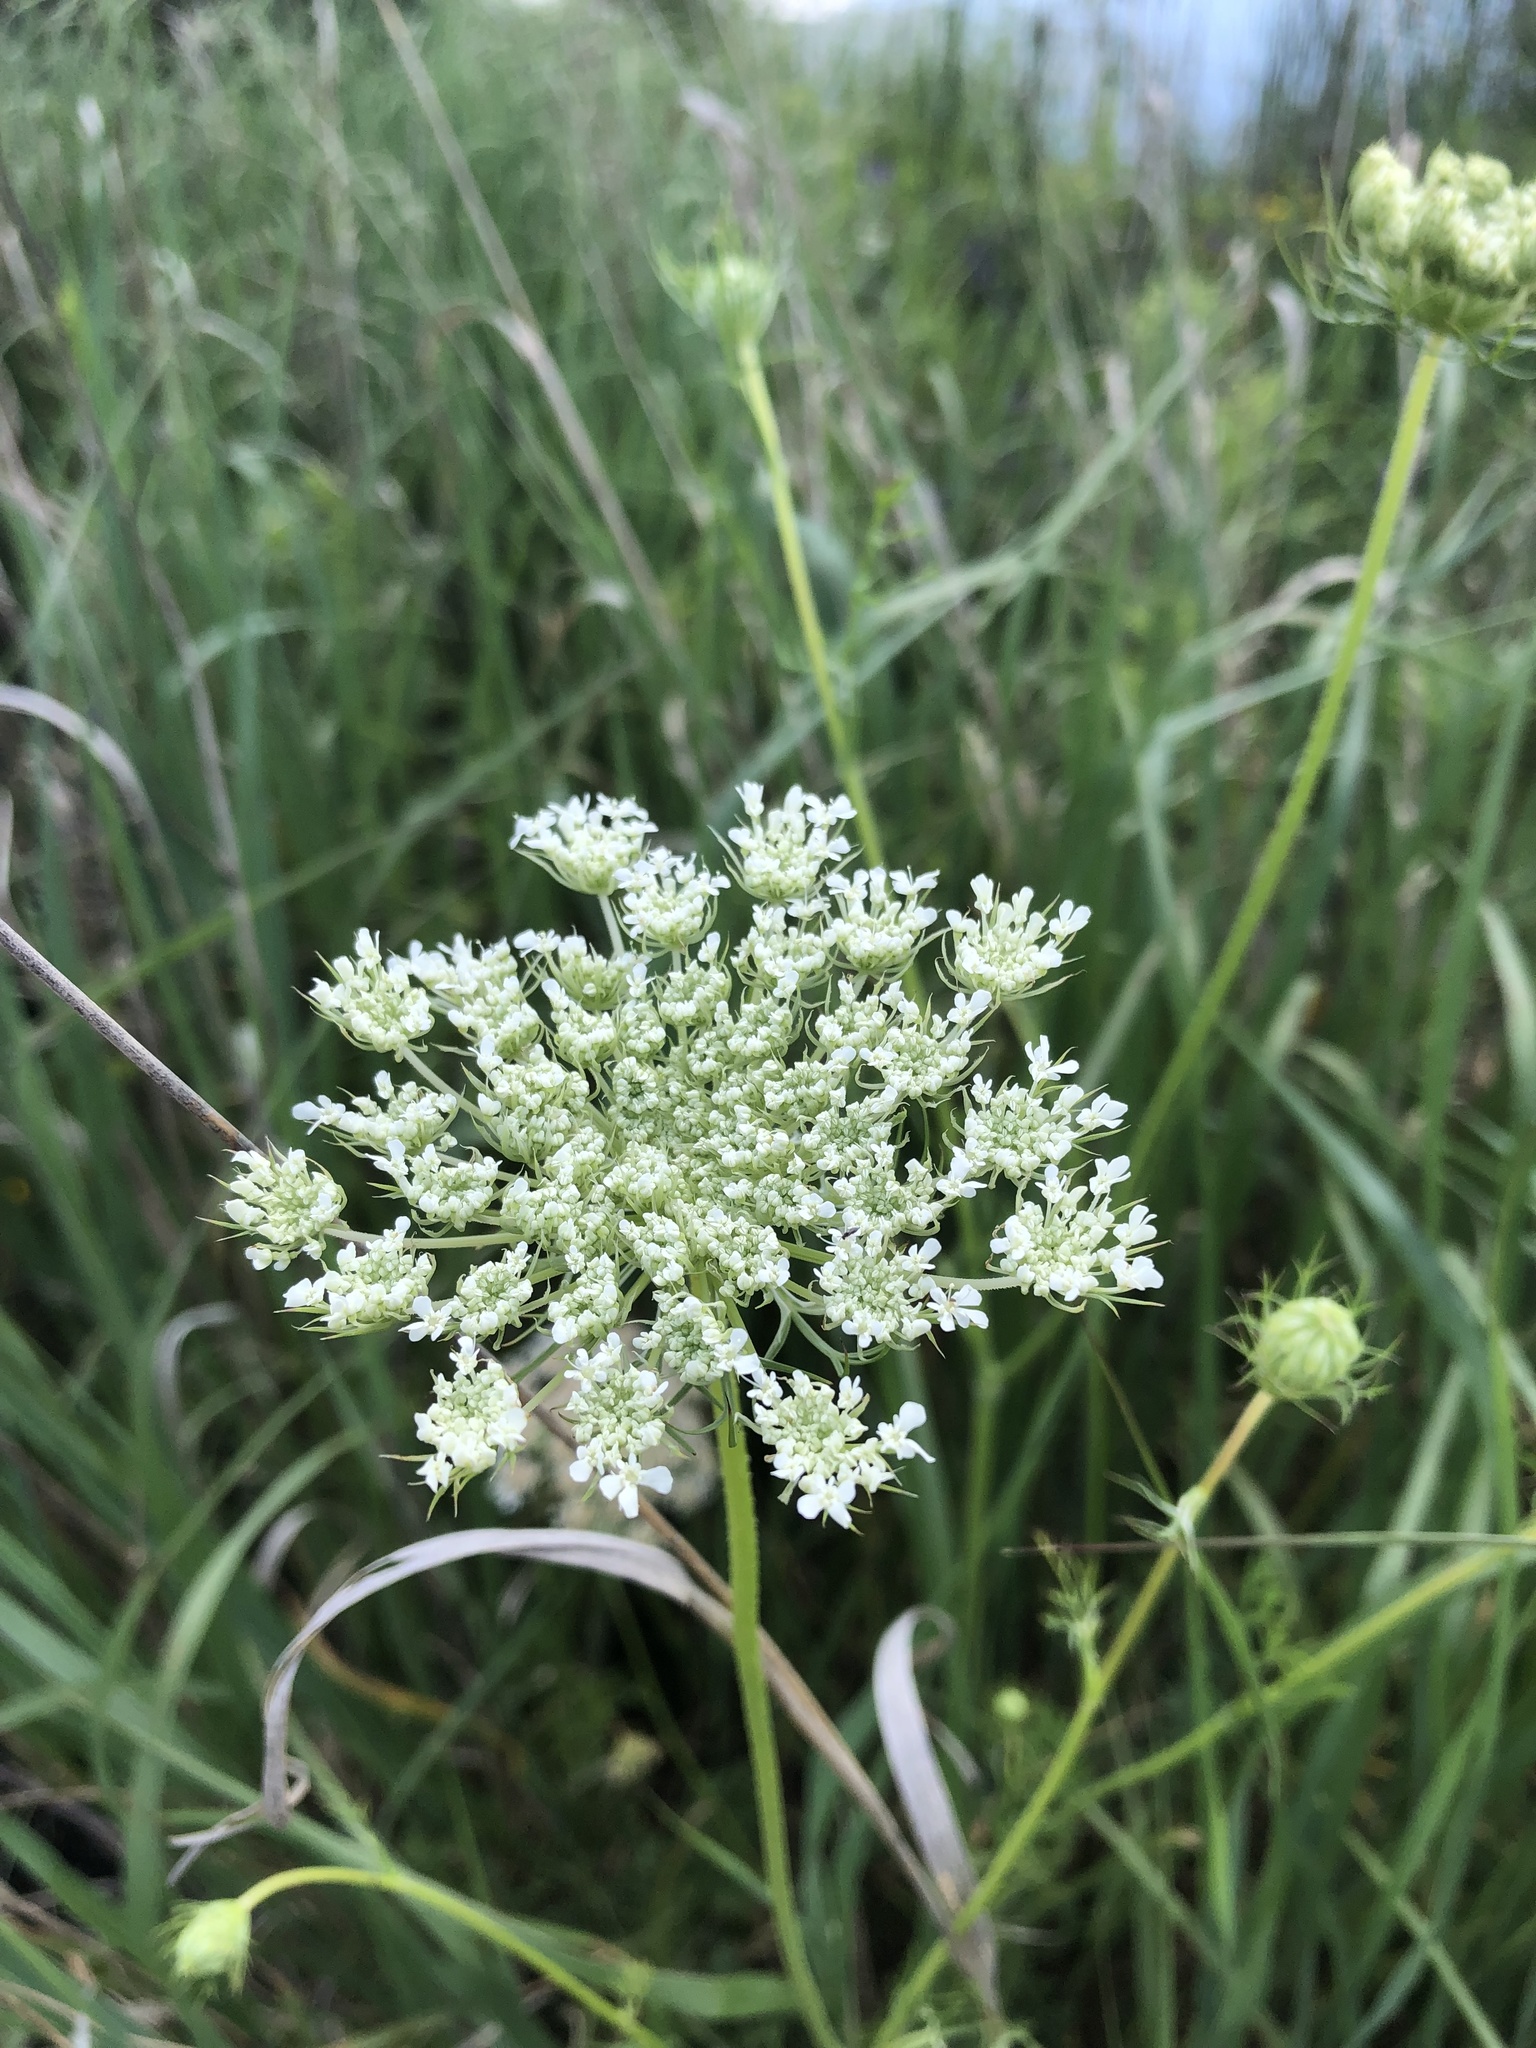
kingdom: Plantae
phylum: Tracheophyta
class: Magnoliopsida
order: Apiales
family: Apiaceae
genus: Daucus
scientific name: Daucus carota
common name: Wild carrot
